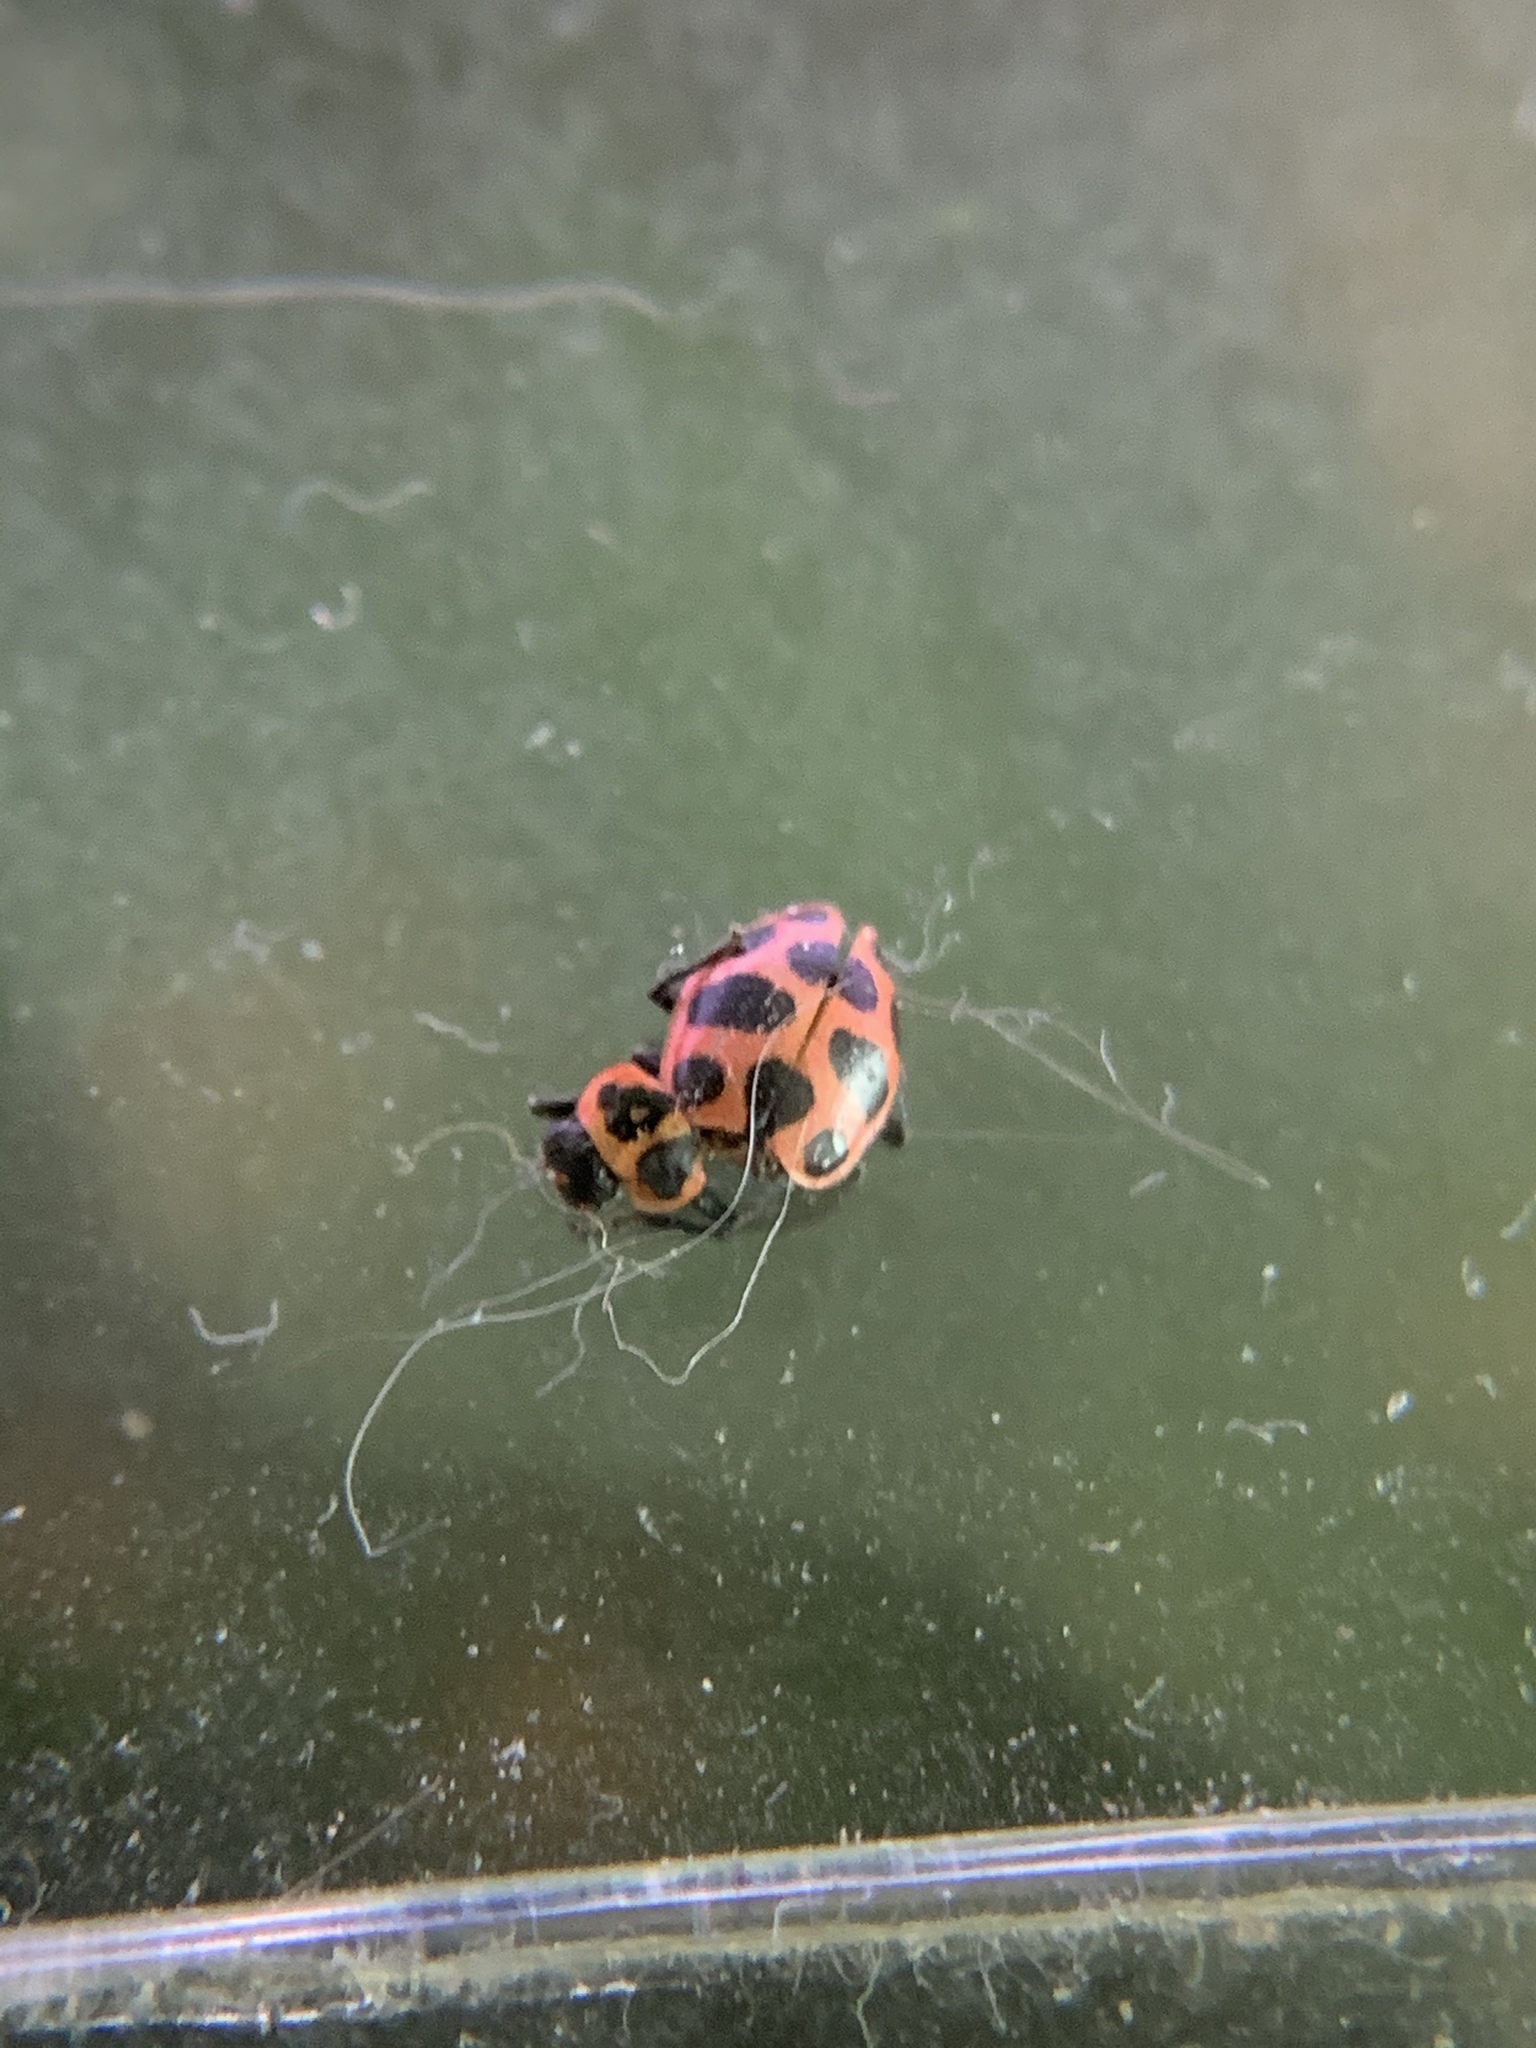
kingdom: Animalia
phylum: Arthropoda
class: Insecta
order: Coleoptera
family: Coccinellidae
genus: Coleomegilla
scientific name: Coleomegilla maculata
